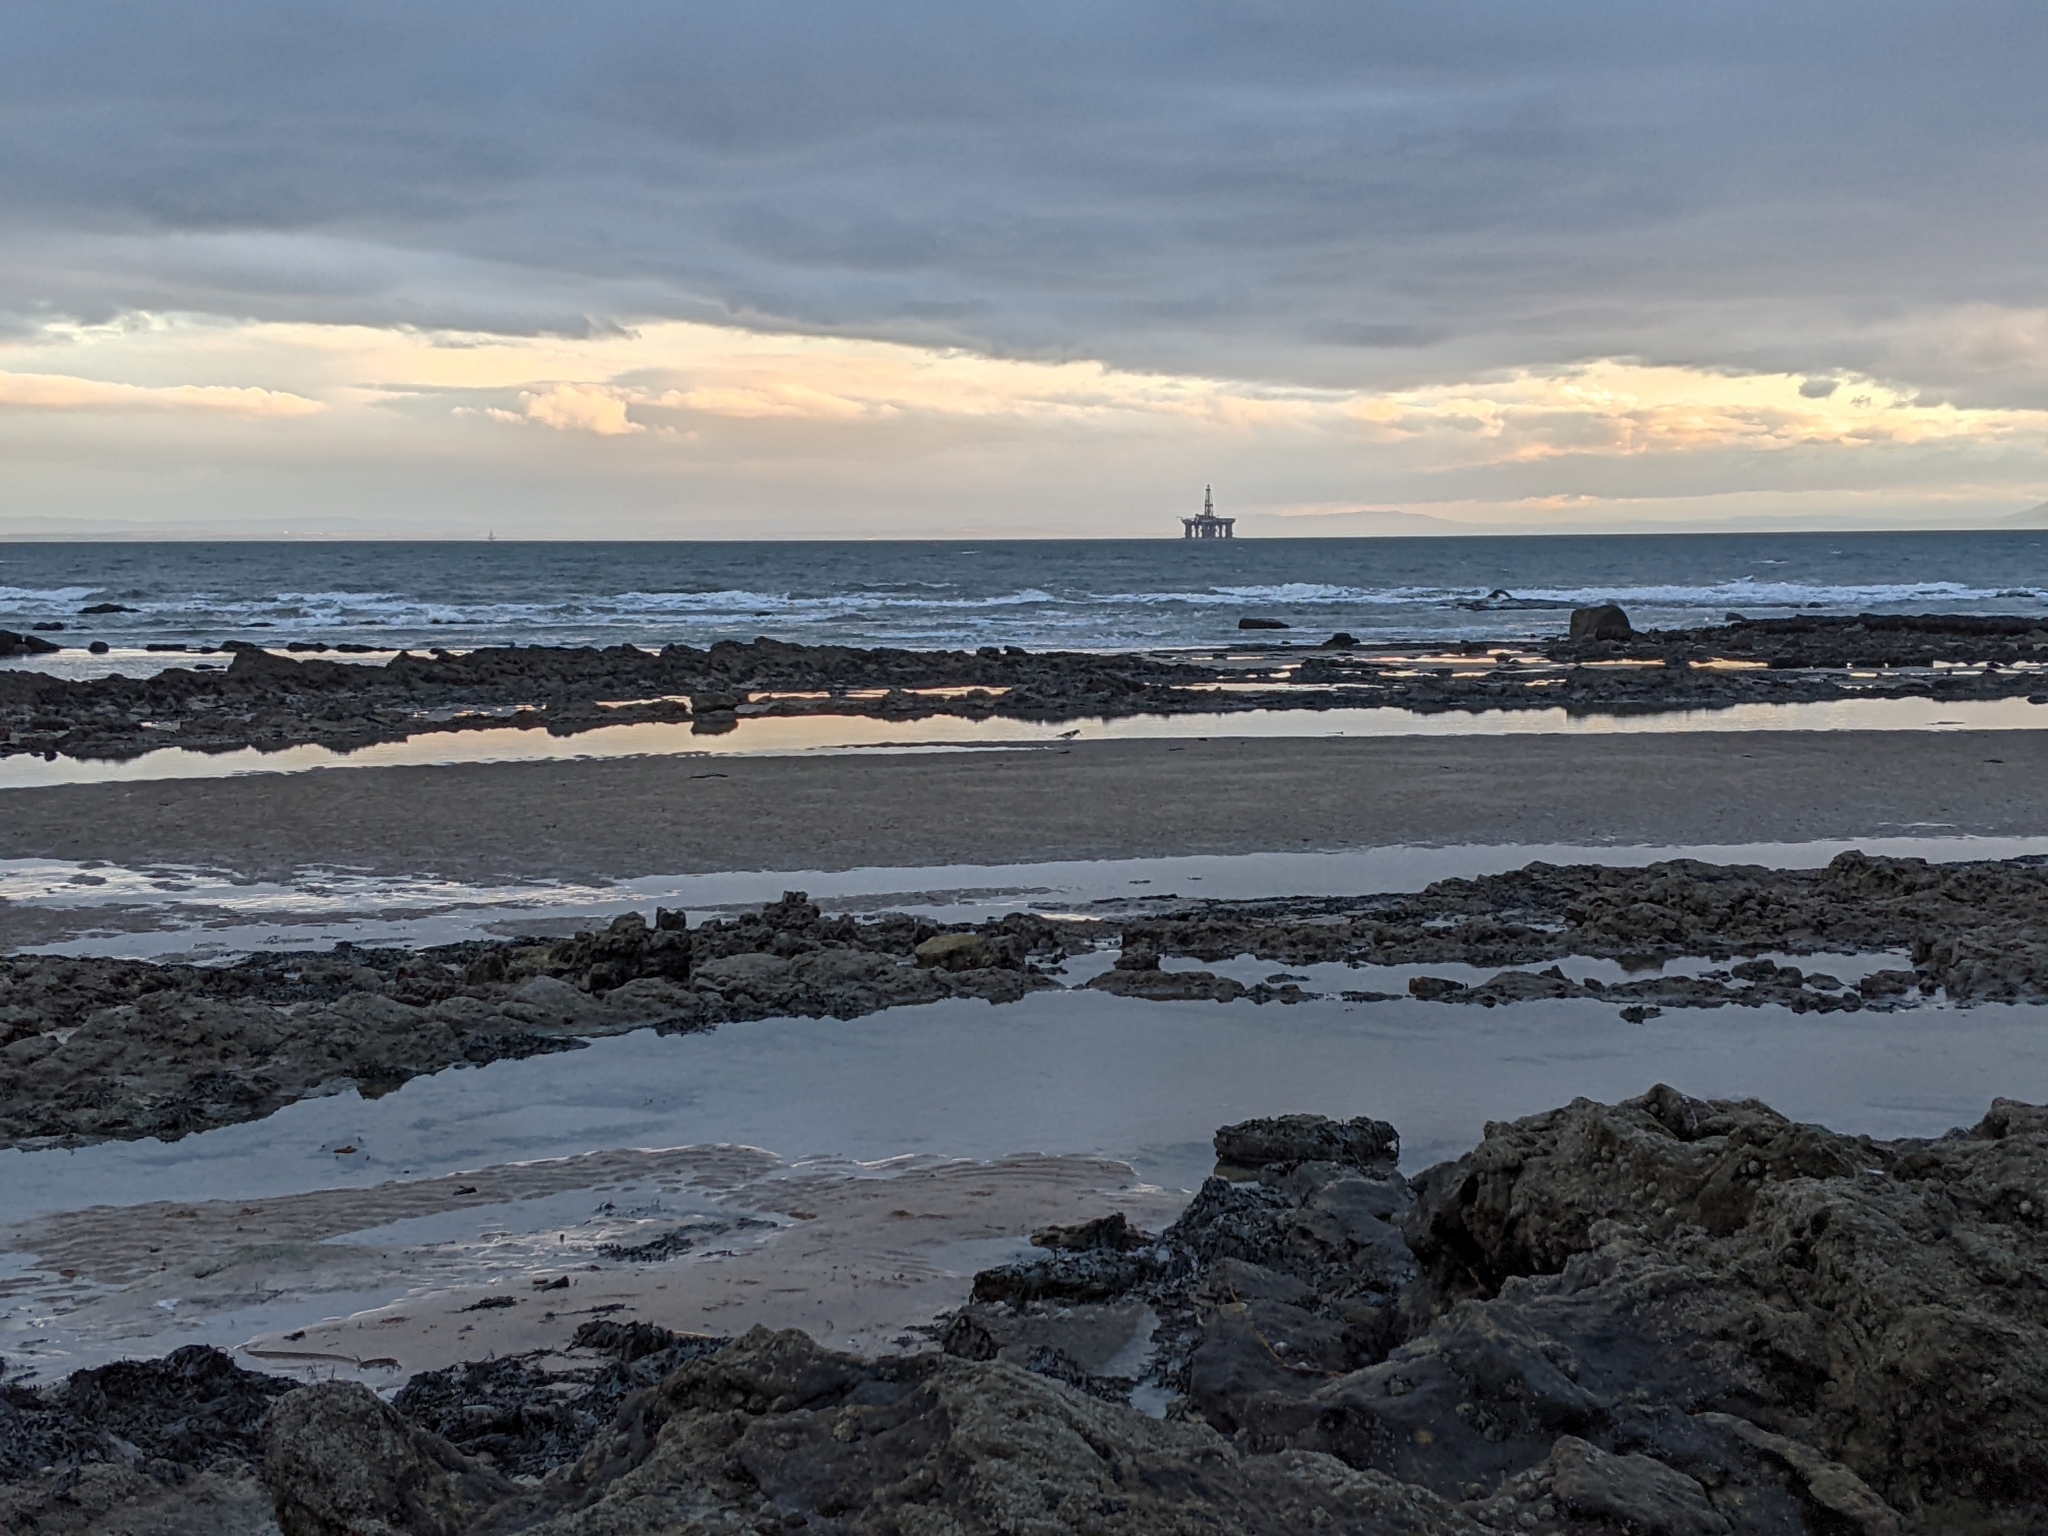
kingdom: Animalia
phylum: Chordata
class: Aves
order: Charadriiformes
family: Haematopodidae
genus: Haematopus
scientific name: Haematopus ostralegus
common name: Eurasian oystercatcher
